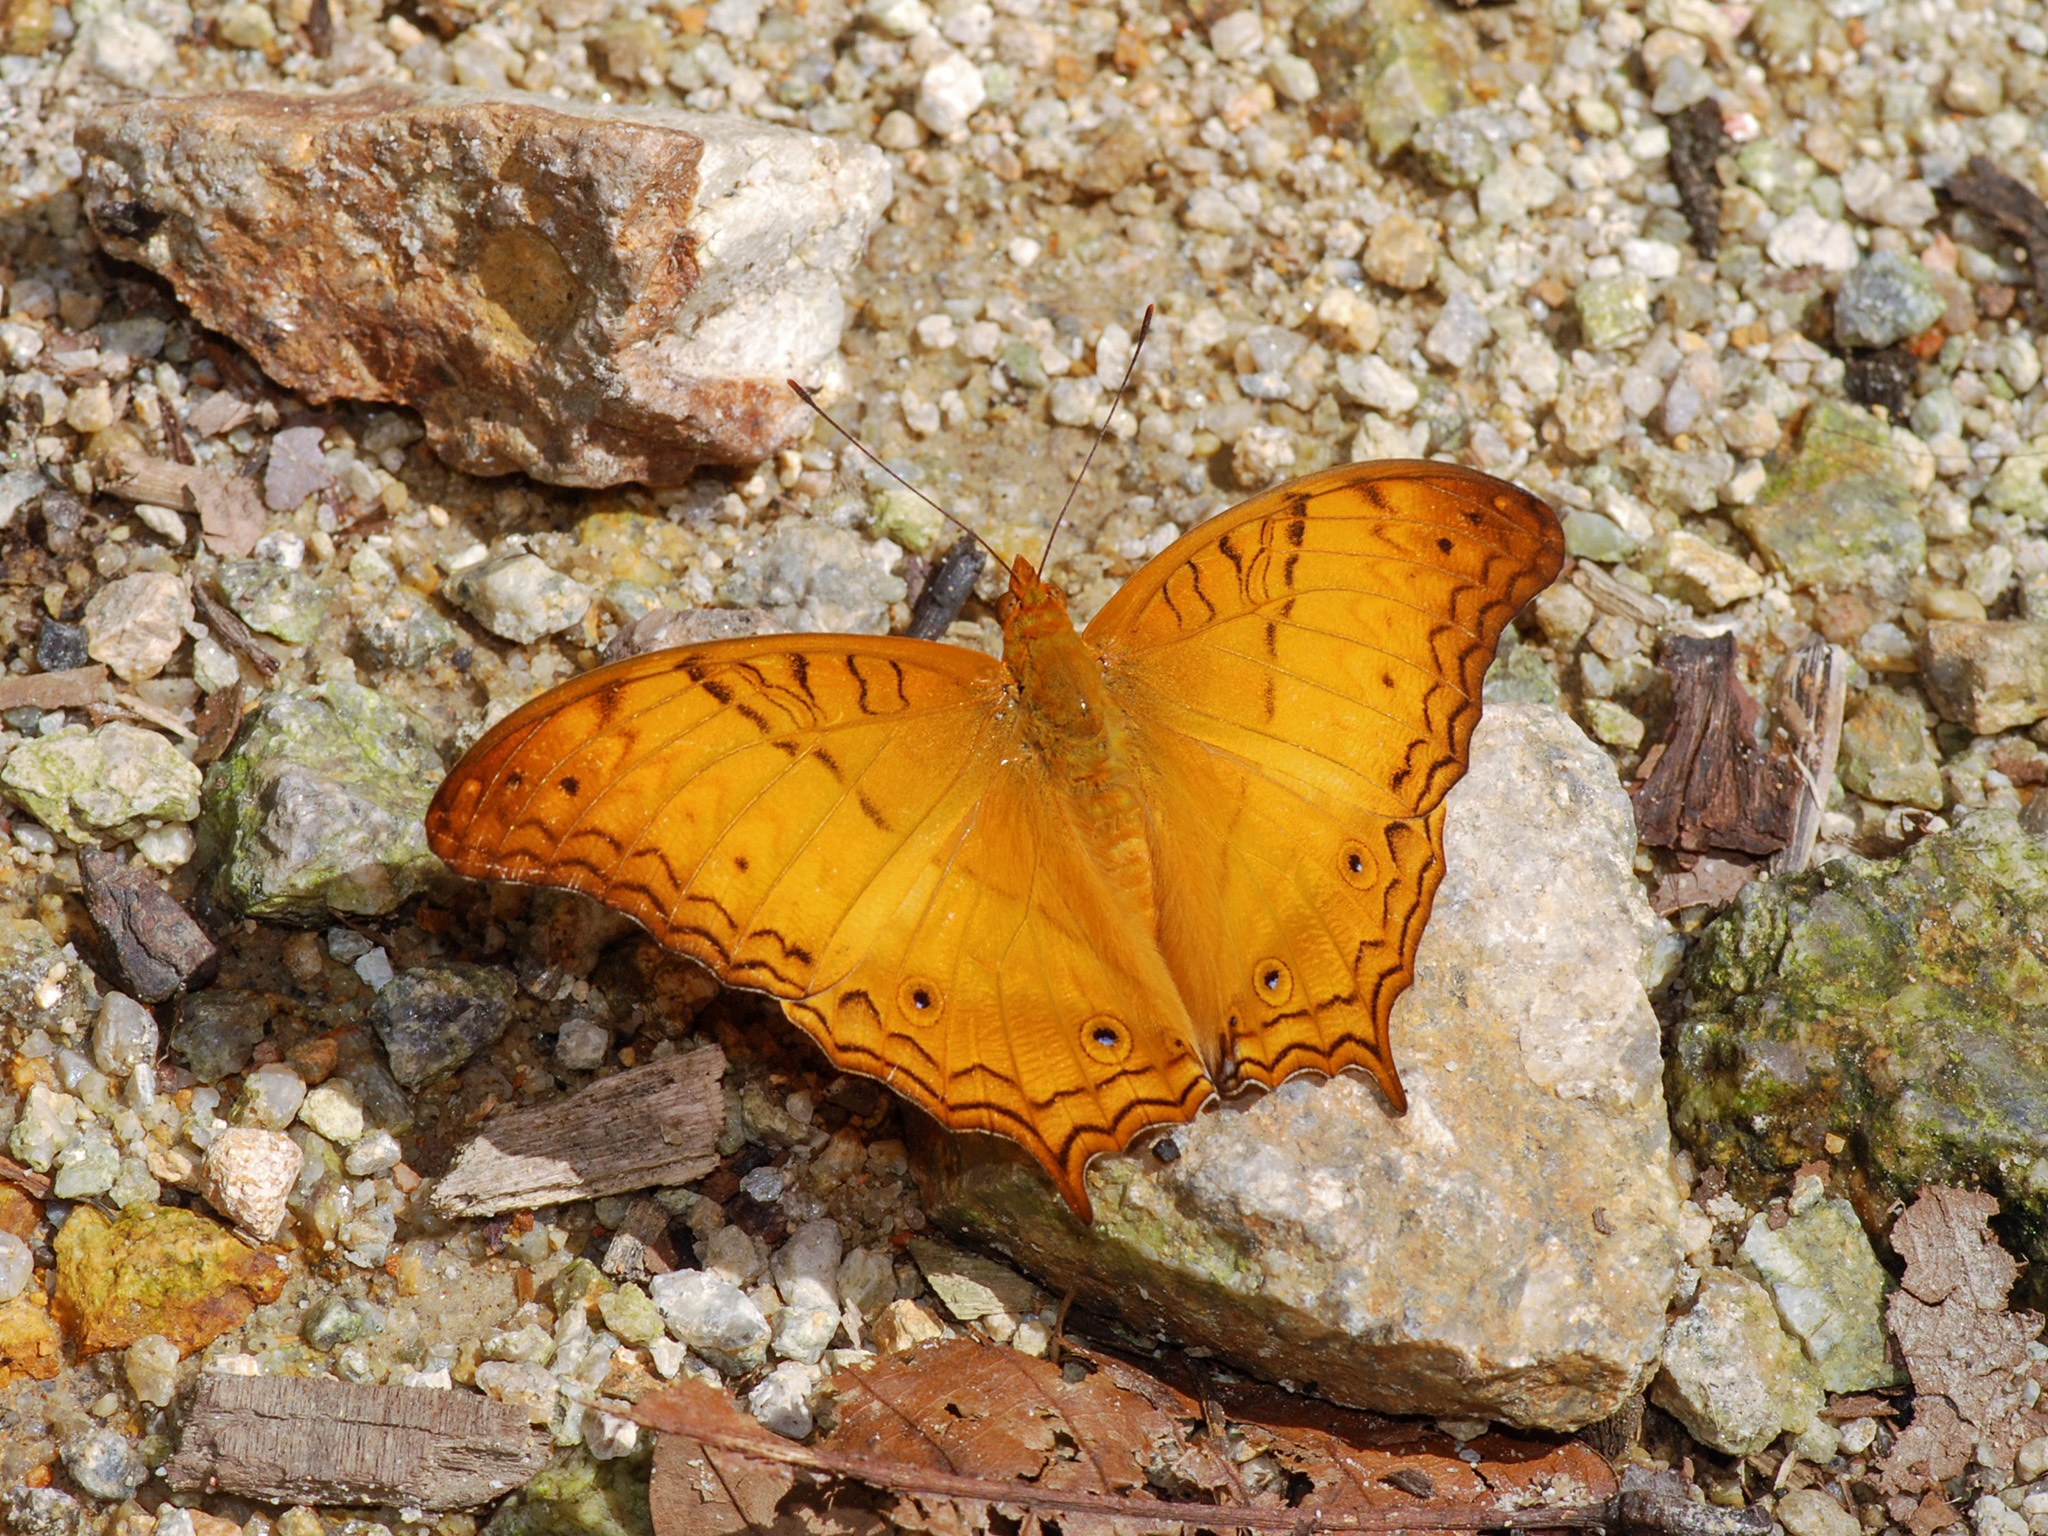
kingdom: Animalia
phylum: Arthropoda
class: Insecta
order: Lepidoptera
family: Nymphalidae
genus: Vindula
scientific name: Vindula deione
